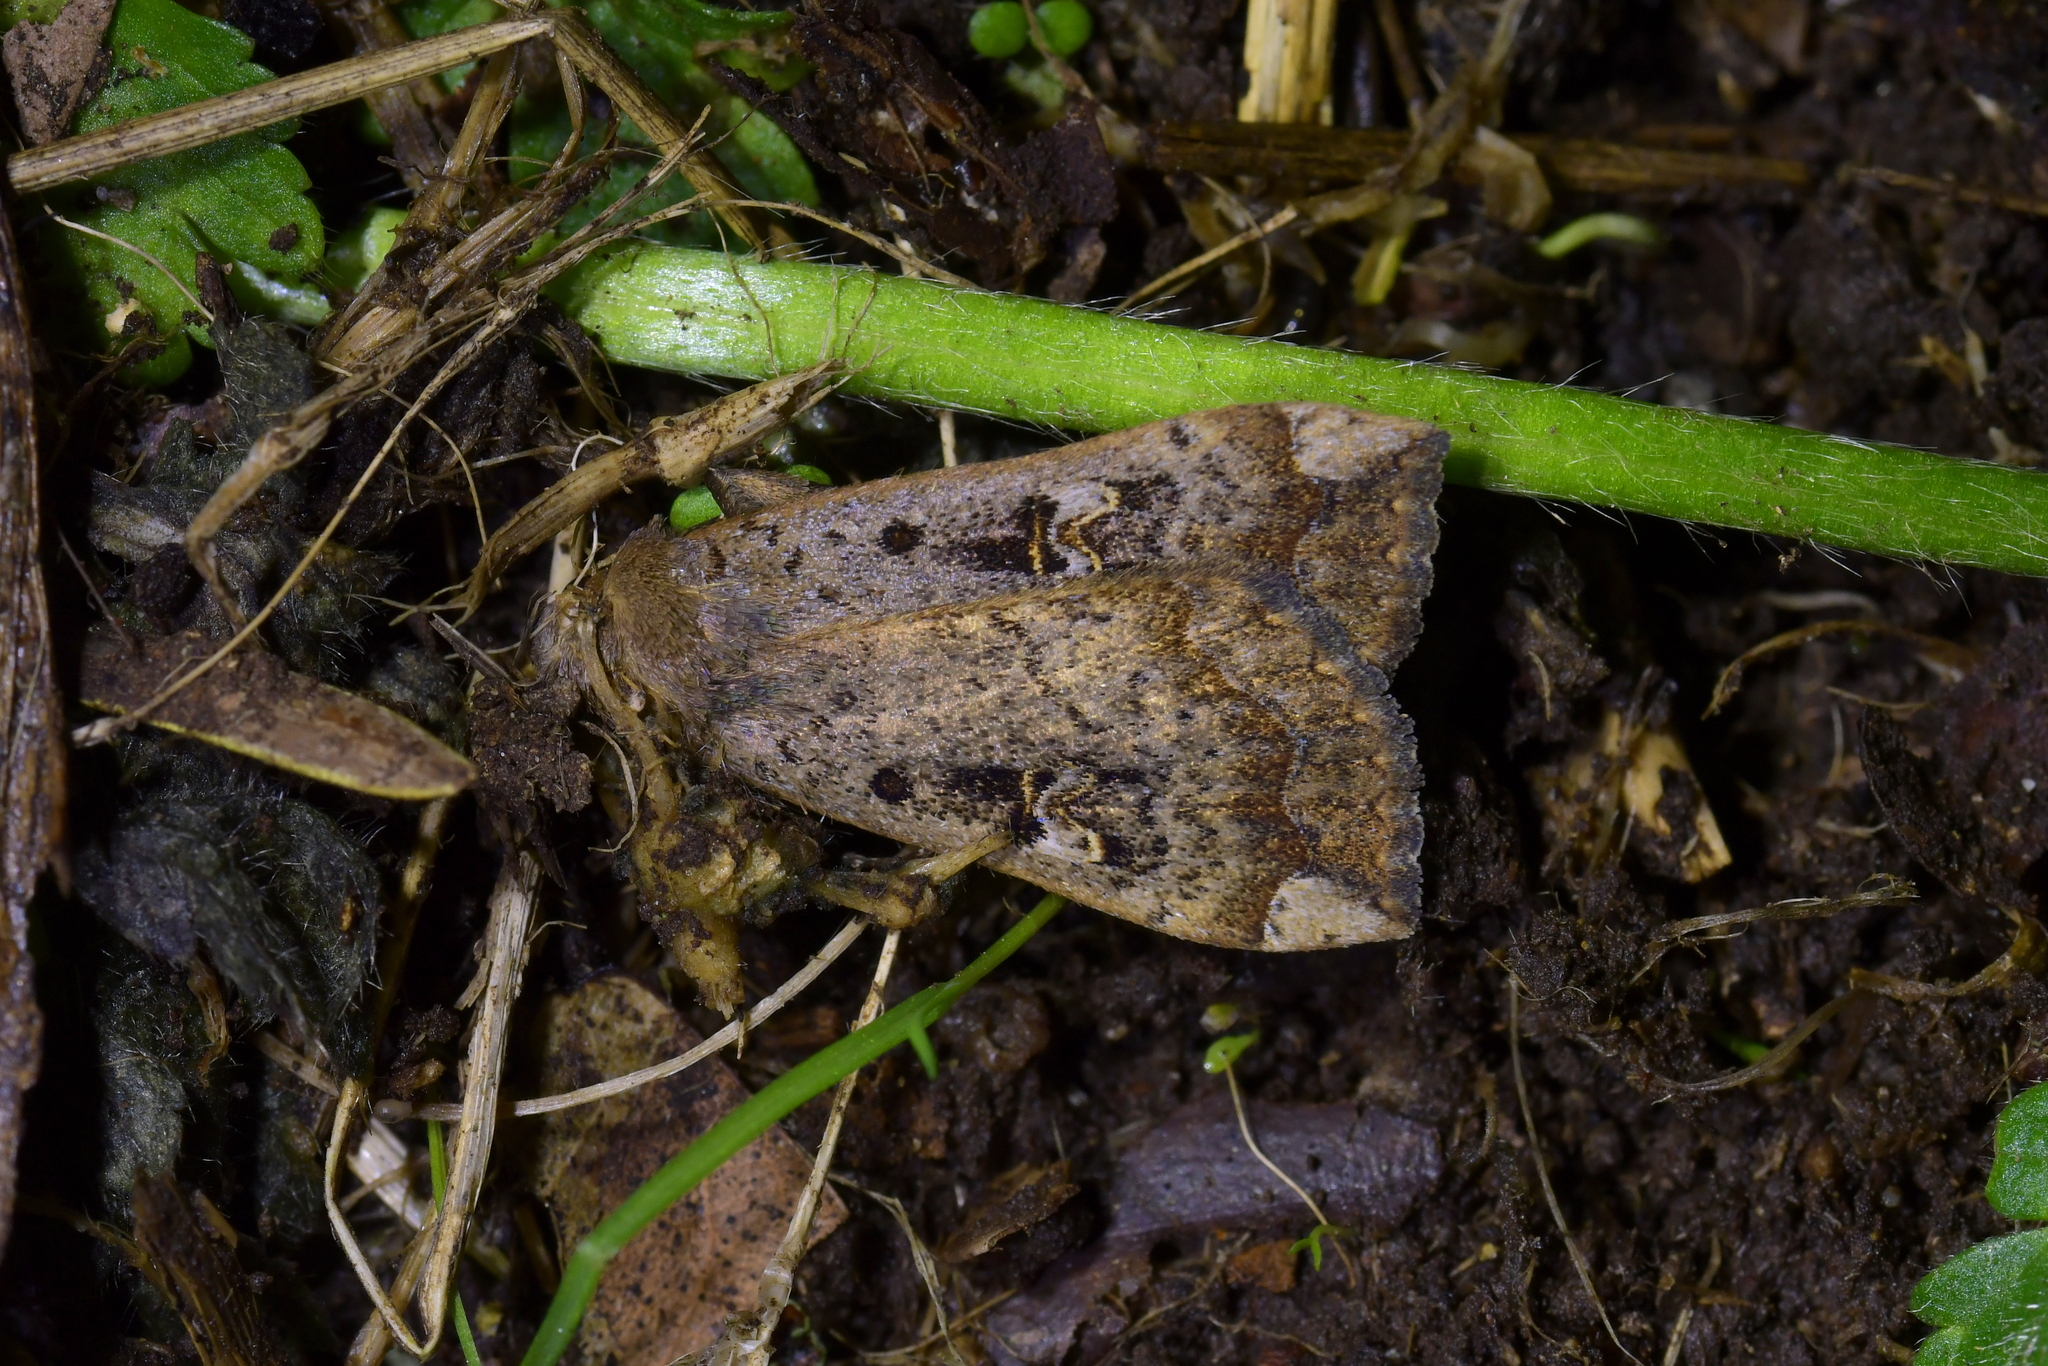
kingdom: Animalia
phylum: Arthropoda
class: Insecta
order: Lepidoptera
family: Erebidae
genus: Rhapsa
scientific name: Rhapsa scotosialis
